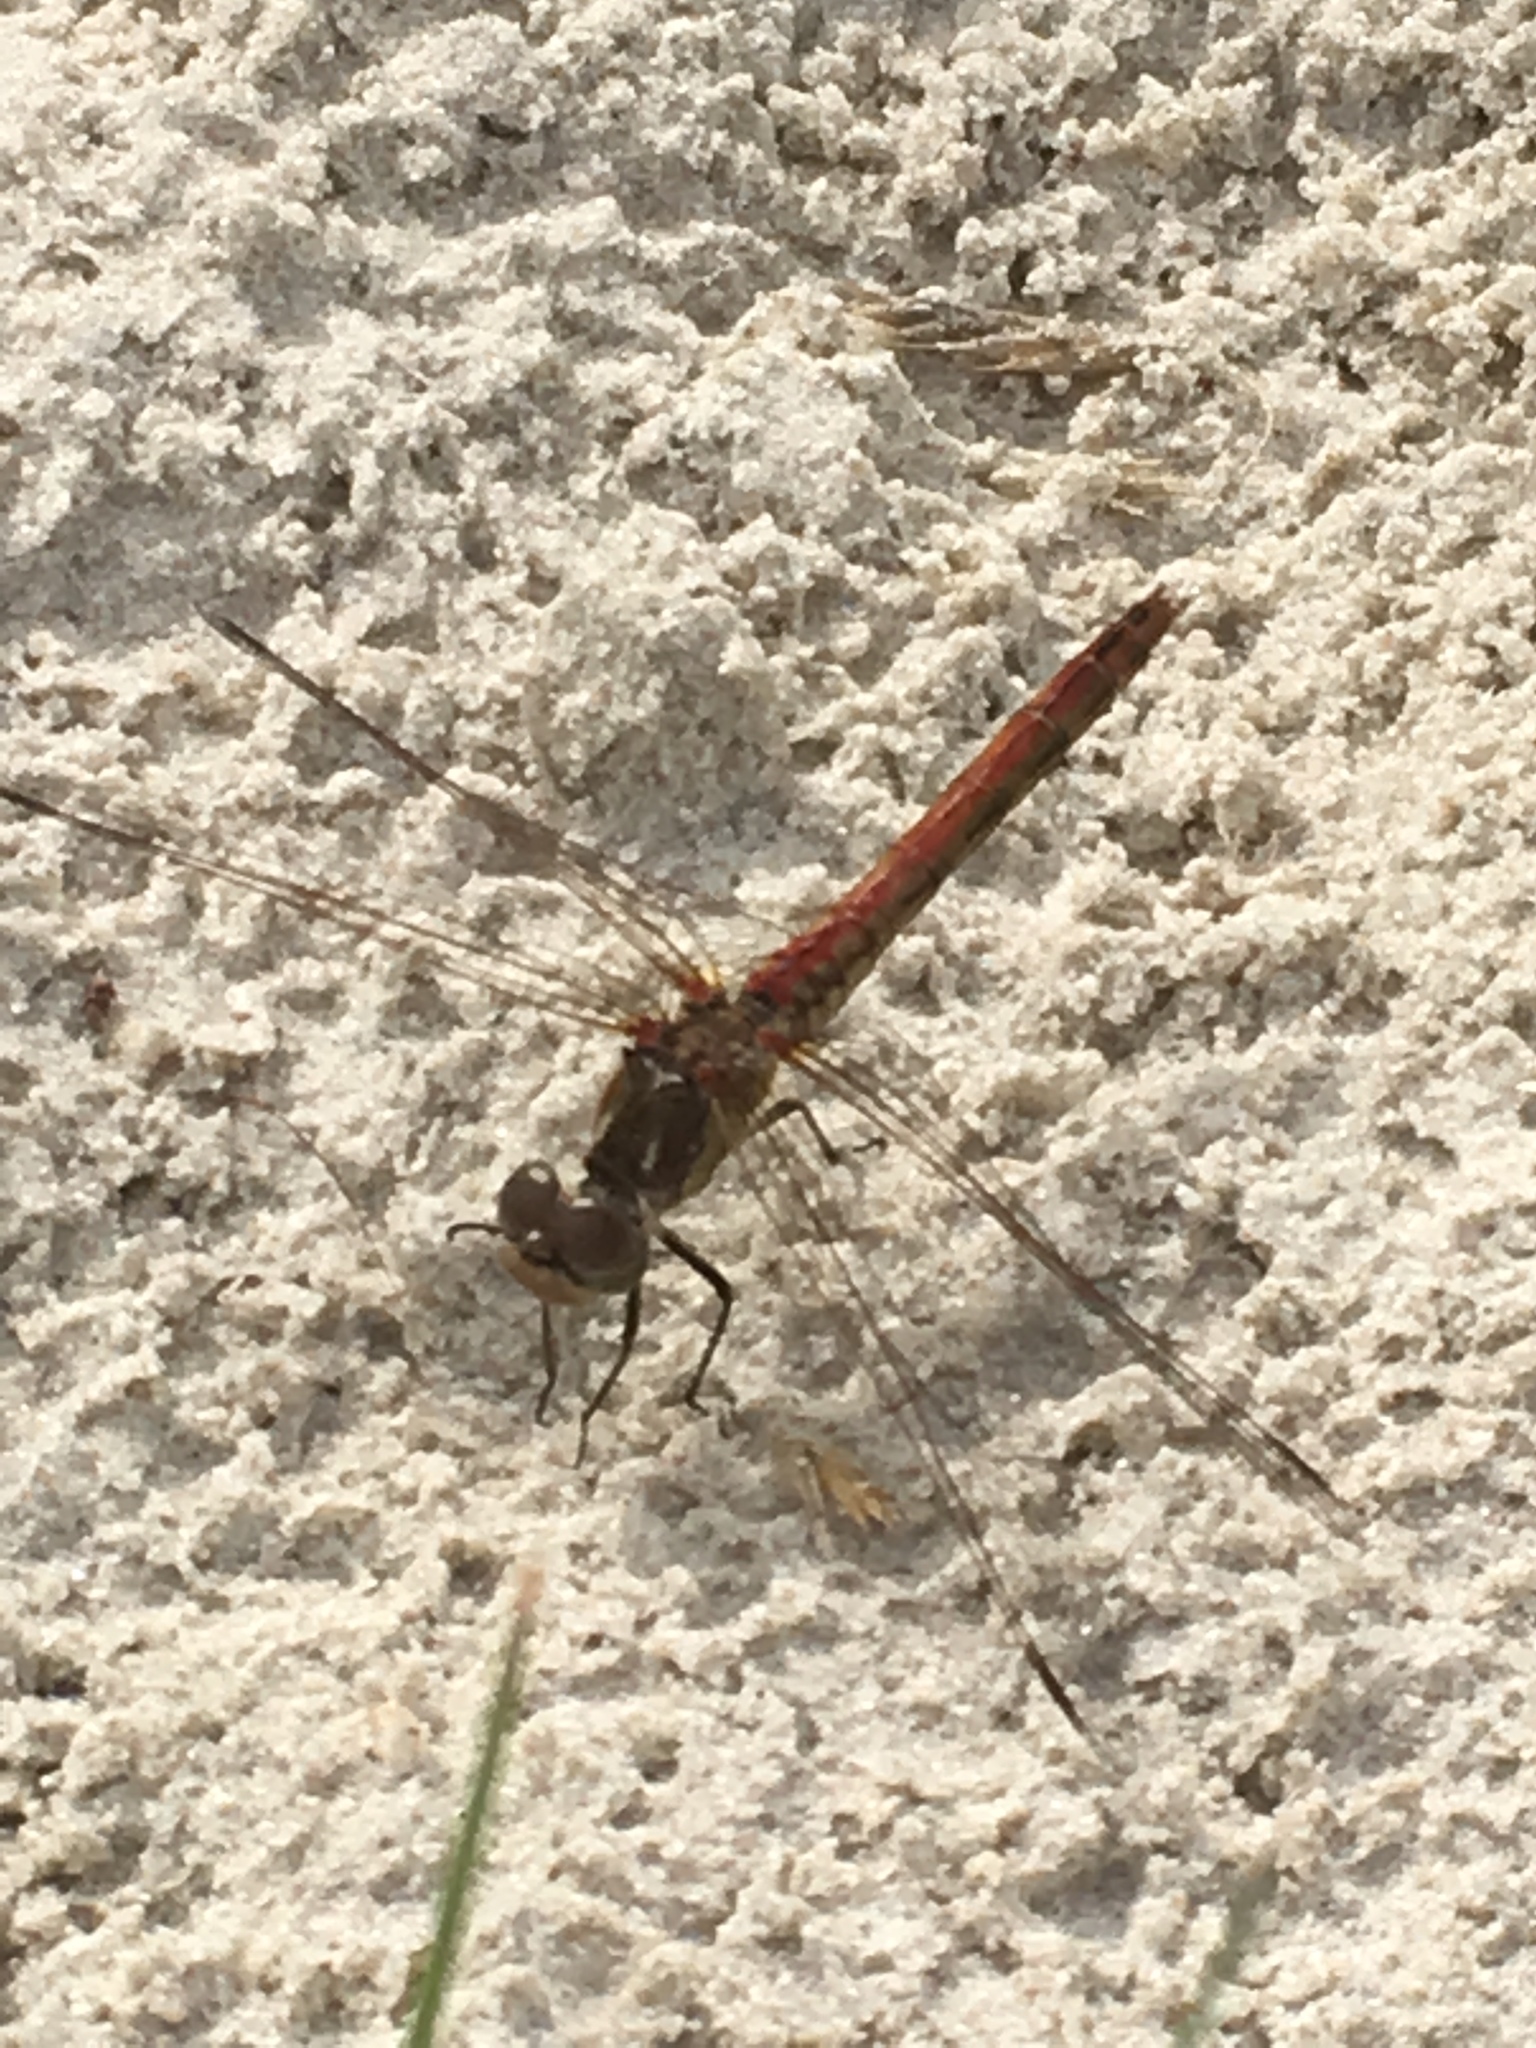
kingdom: Animalia
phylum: Arthropoda
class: Insecta
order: Odonata
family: Libellulidae
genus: Sympetrum
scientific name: Sympetrum vulgatum
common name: Vagrant darter
